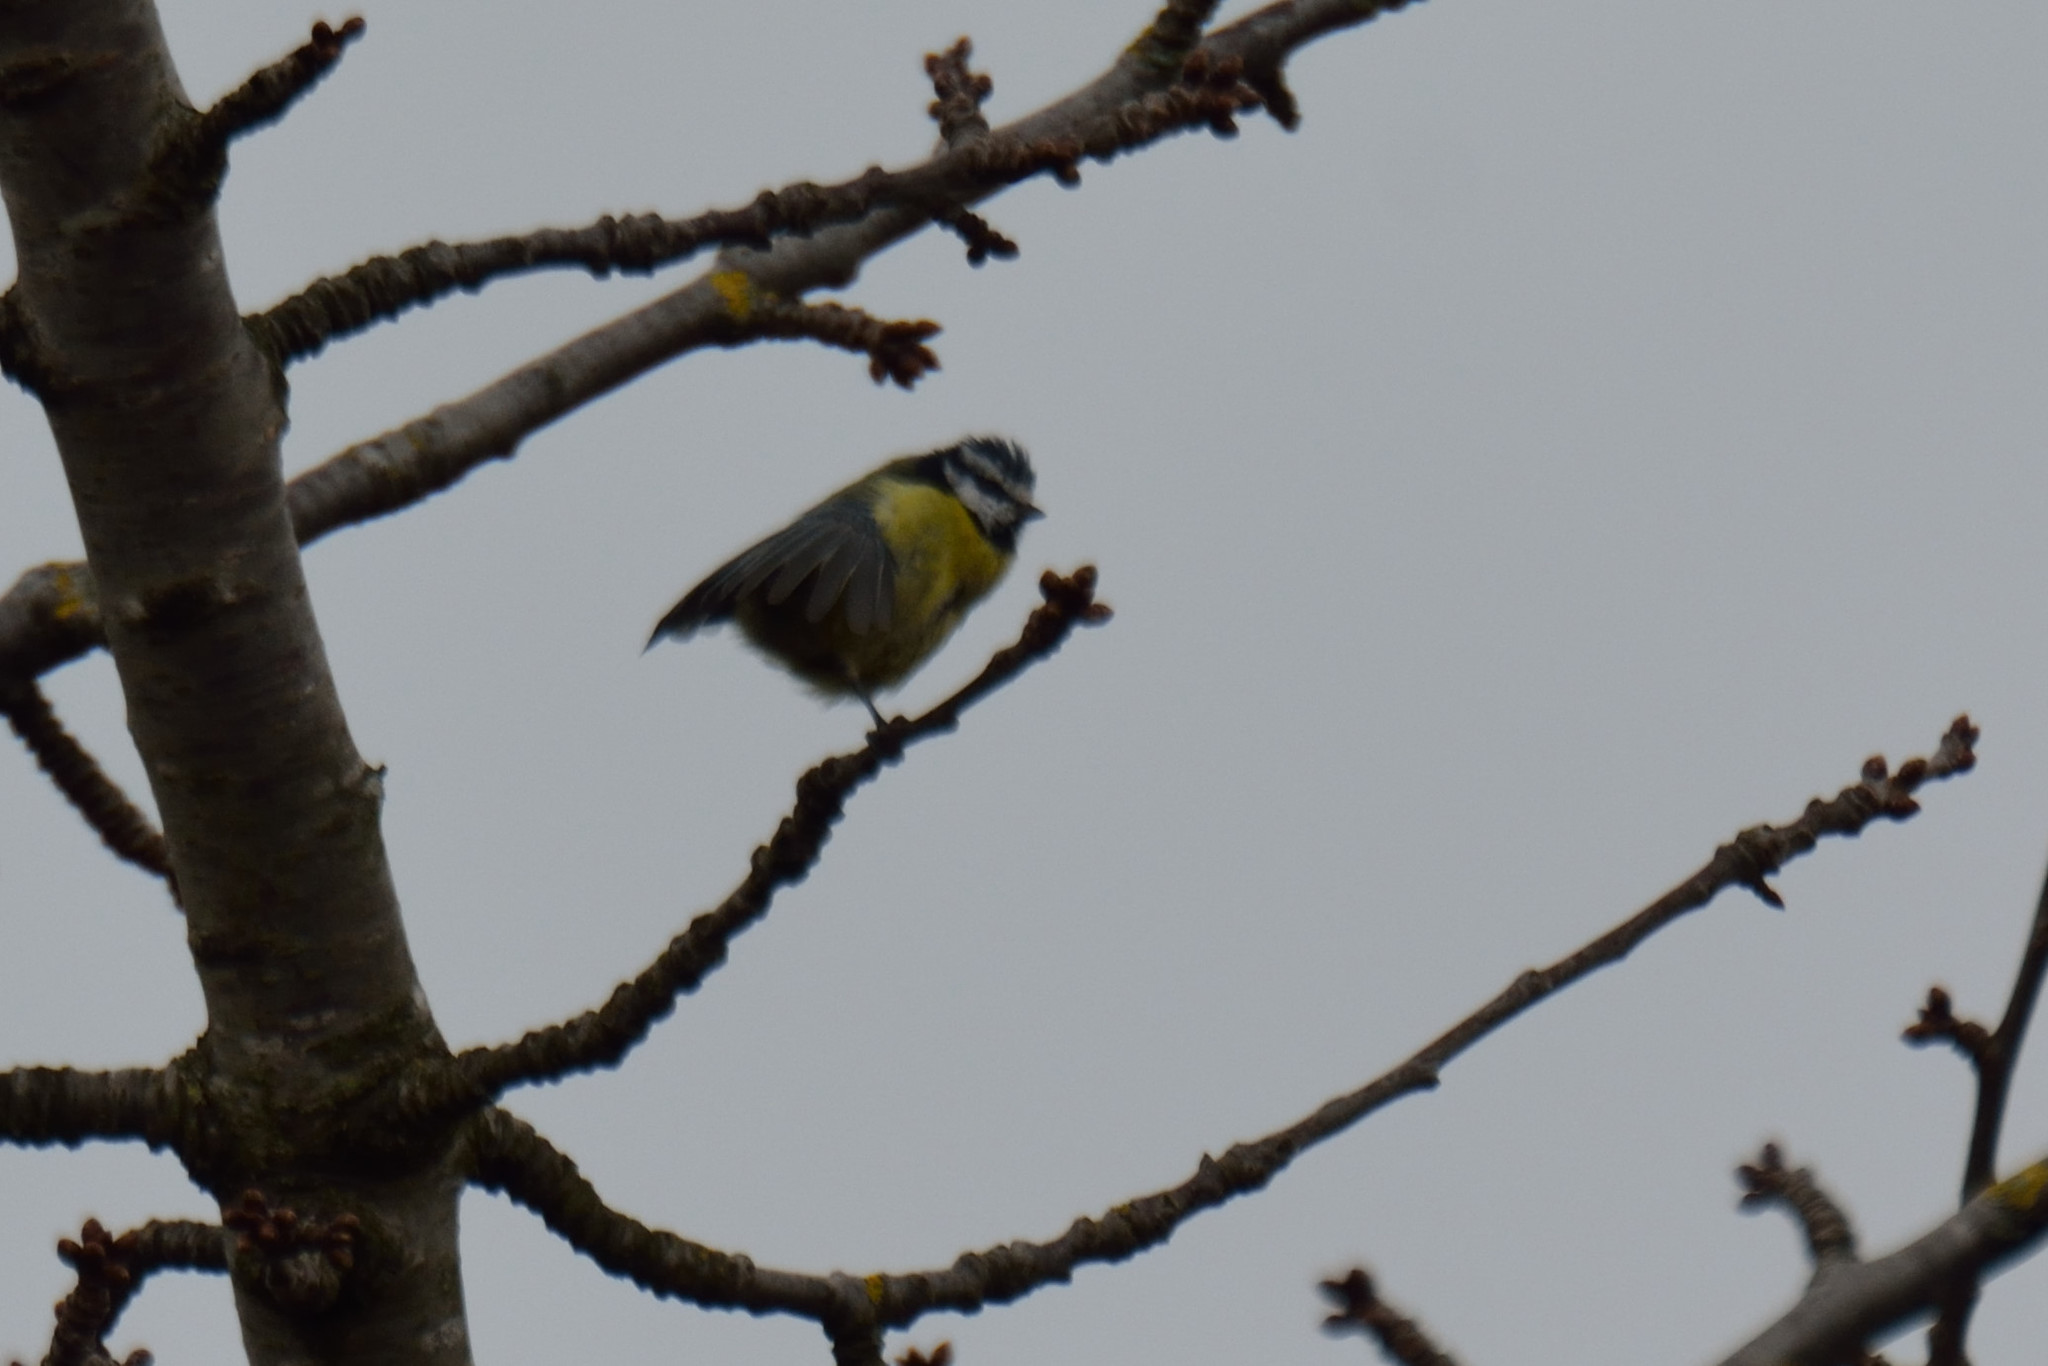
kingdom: Animalia
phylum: Chordata
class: Aves
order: Passeriformes
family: Paridae
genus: Cyanistes
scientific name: Cyanistes caeruleus
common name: Eurasian blue tit
